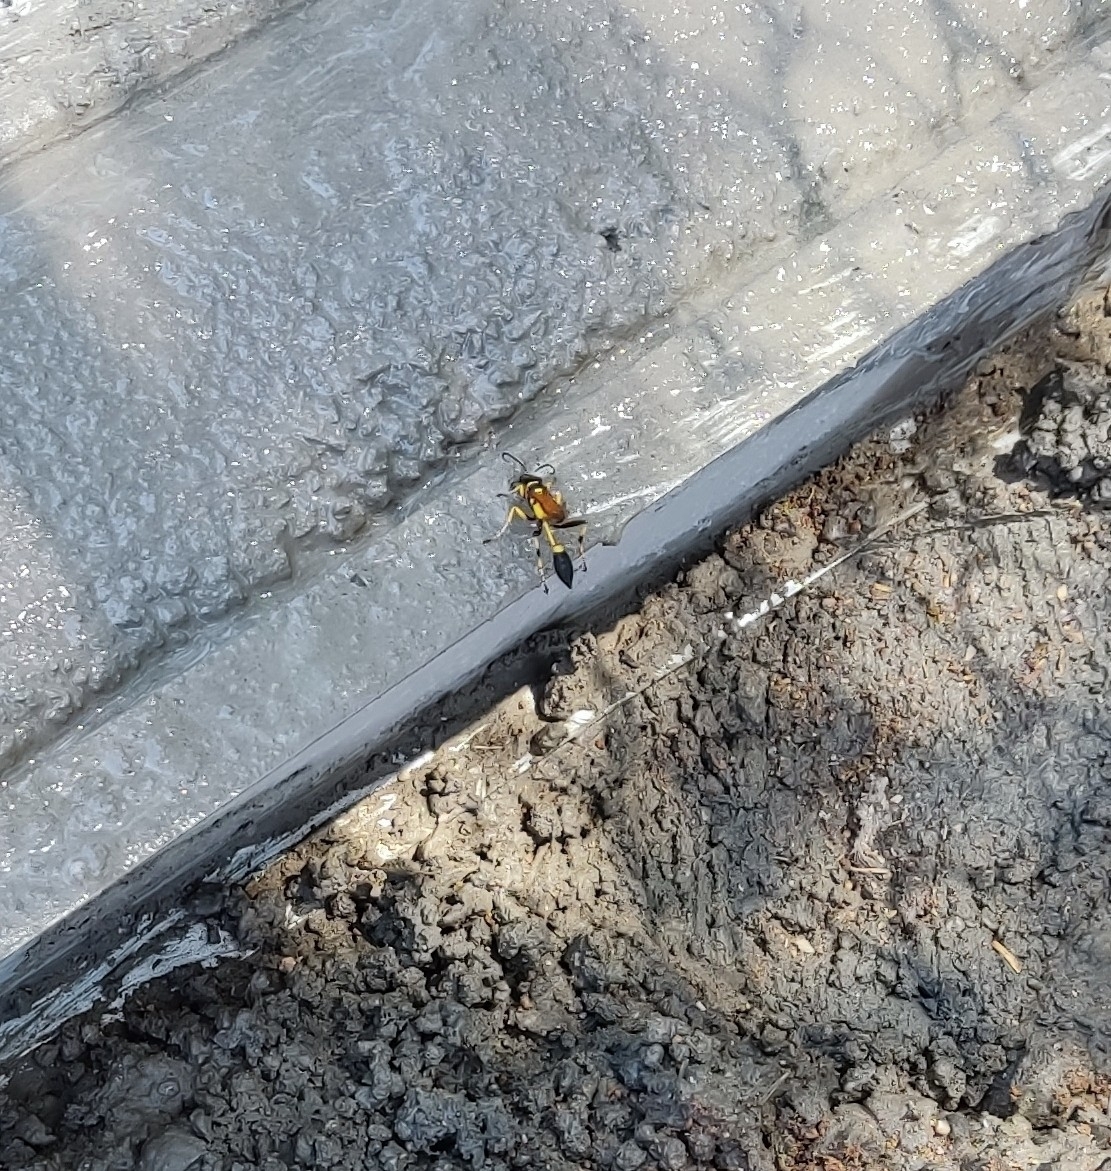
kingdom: Animalia
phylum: Arthropoda
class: Insecta
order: Hymenoptera
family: Sphecidae
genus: Sceliphron
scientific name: Sceliphron caementarium
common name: Mud dauber
